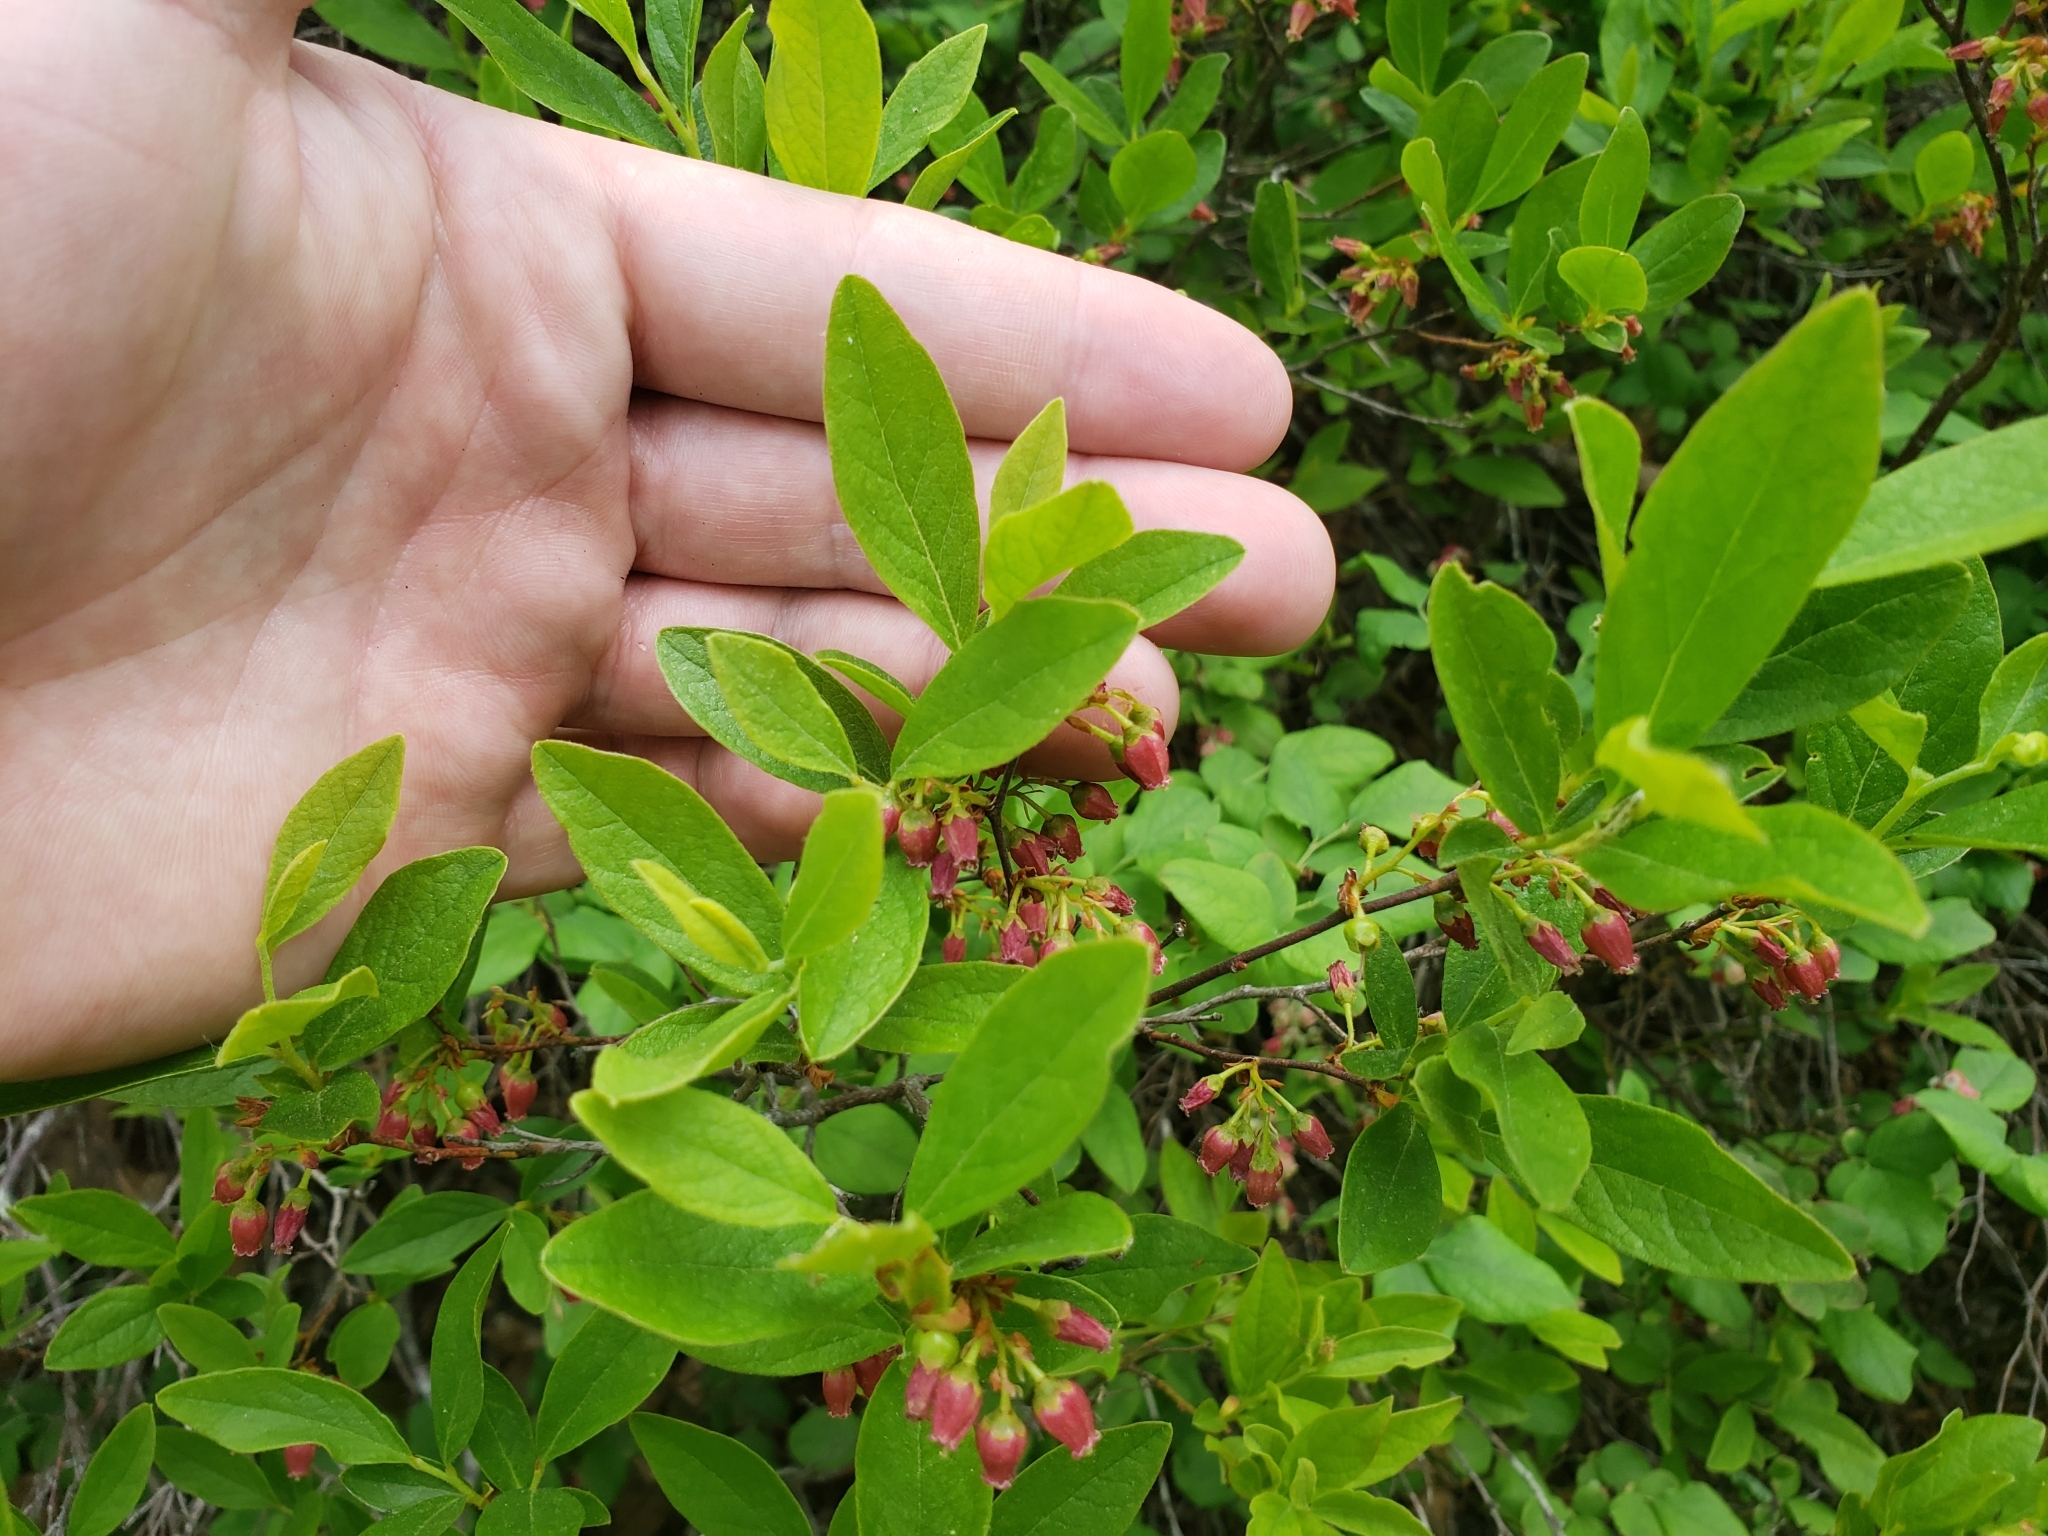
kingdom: Plantae
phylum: Tracheophyta
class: Magnoliopsida
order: Ericales
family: Ericaceae
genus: Gaylussacia
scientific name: Gaylussacia baccata
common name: Black huckleberry
